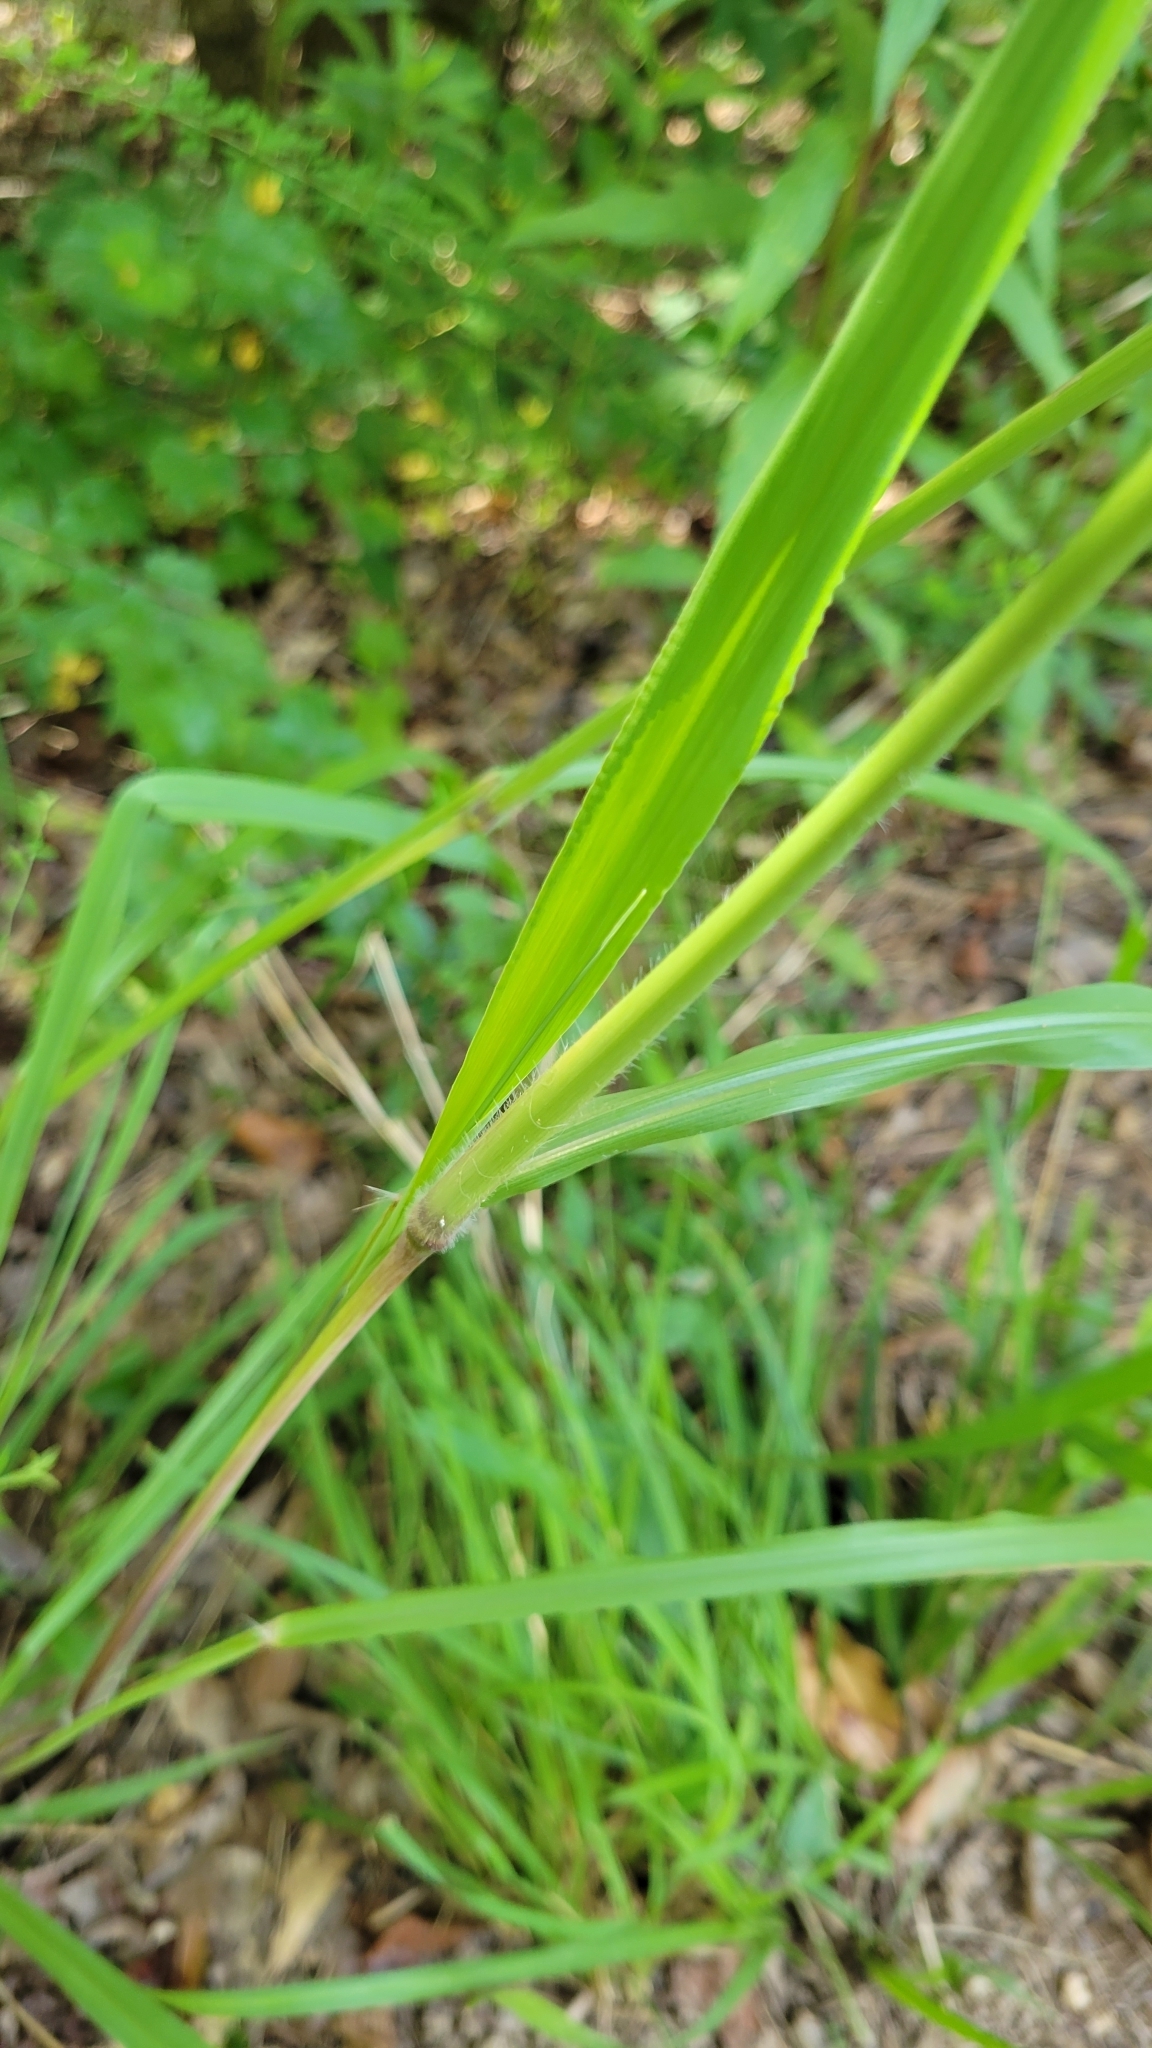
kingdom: Plantae
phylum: Tracheophyta
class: Liliopsida
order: Poales
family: Poaceae
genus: Paspalum
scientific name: Paspalum urvillei
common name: Vasey's grass
